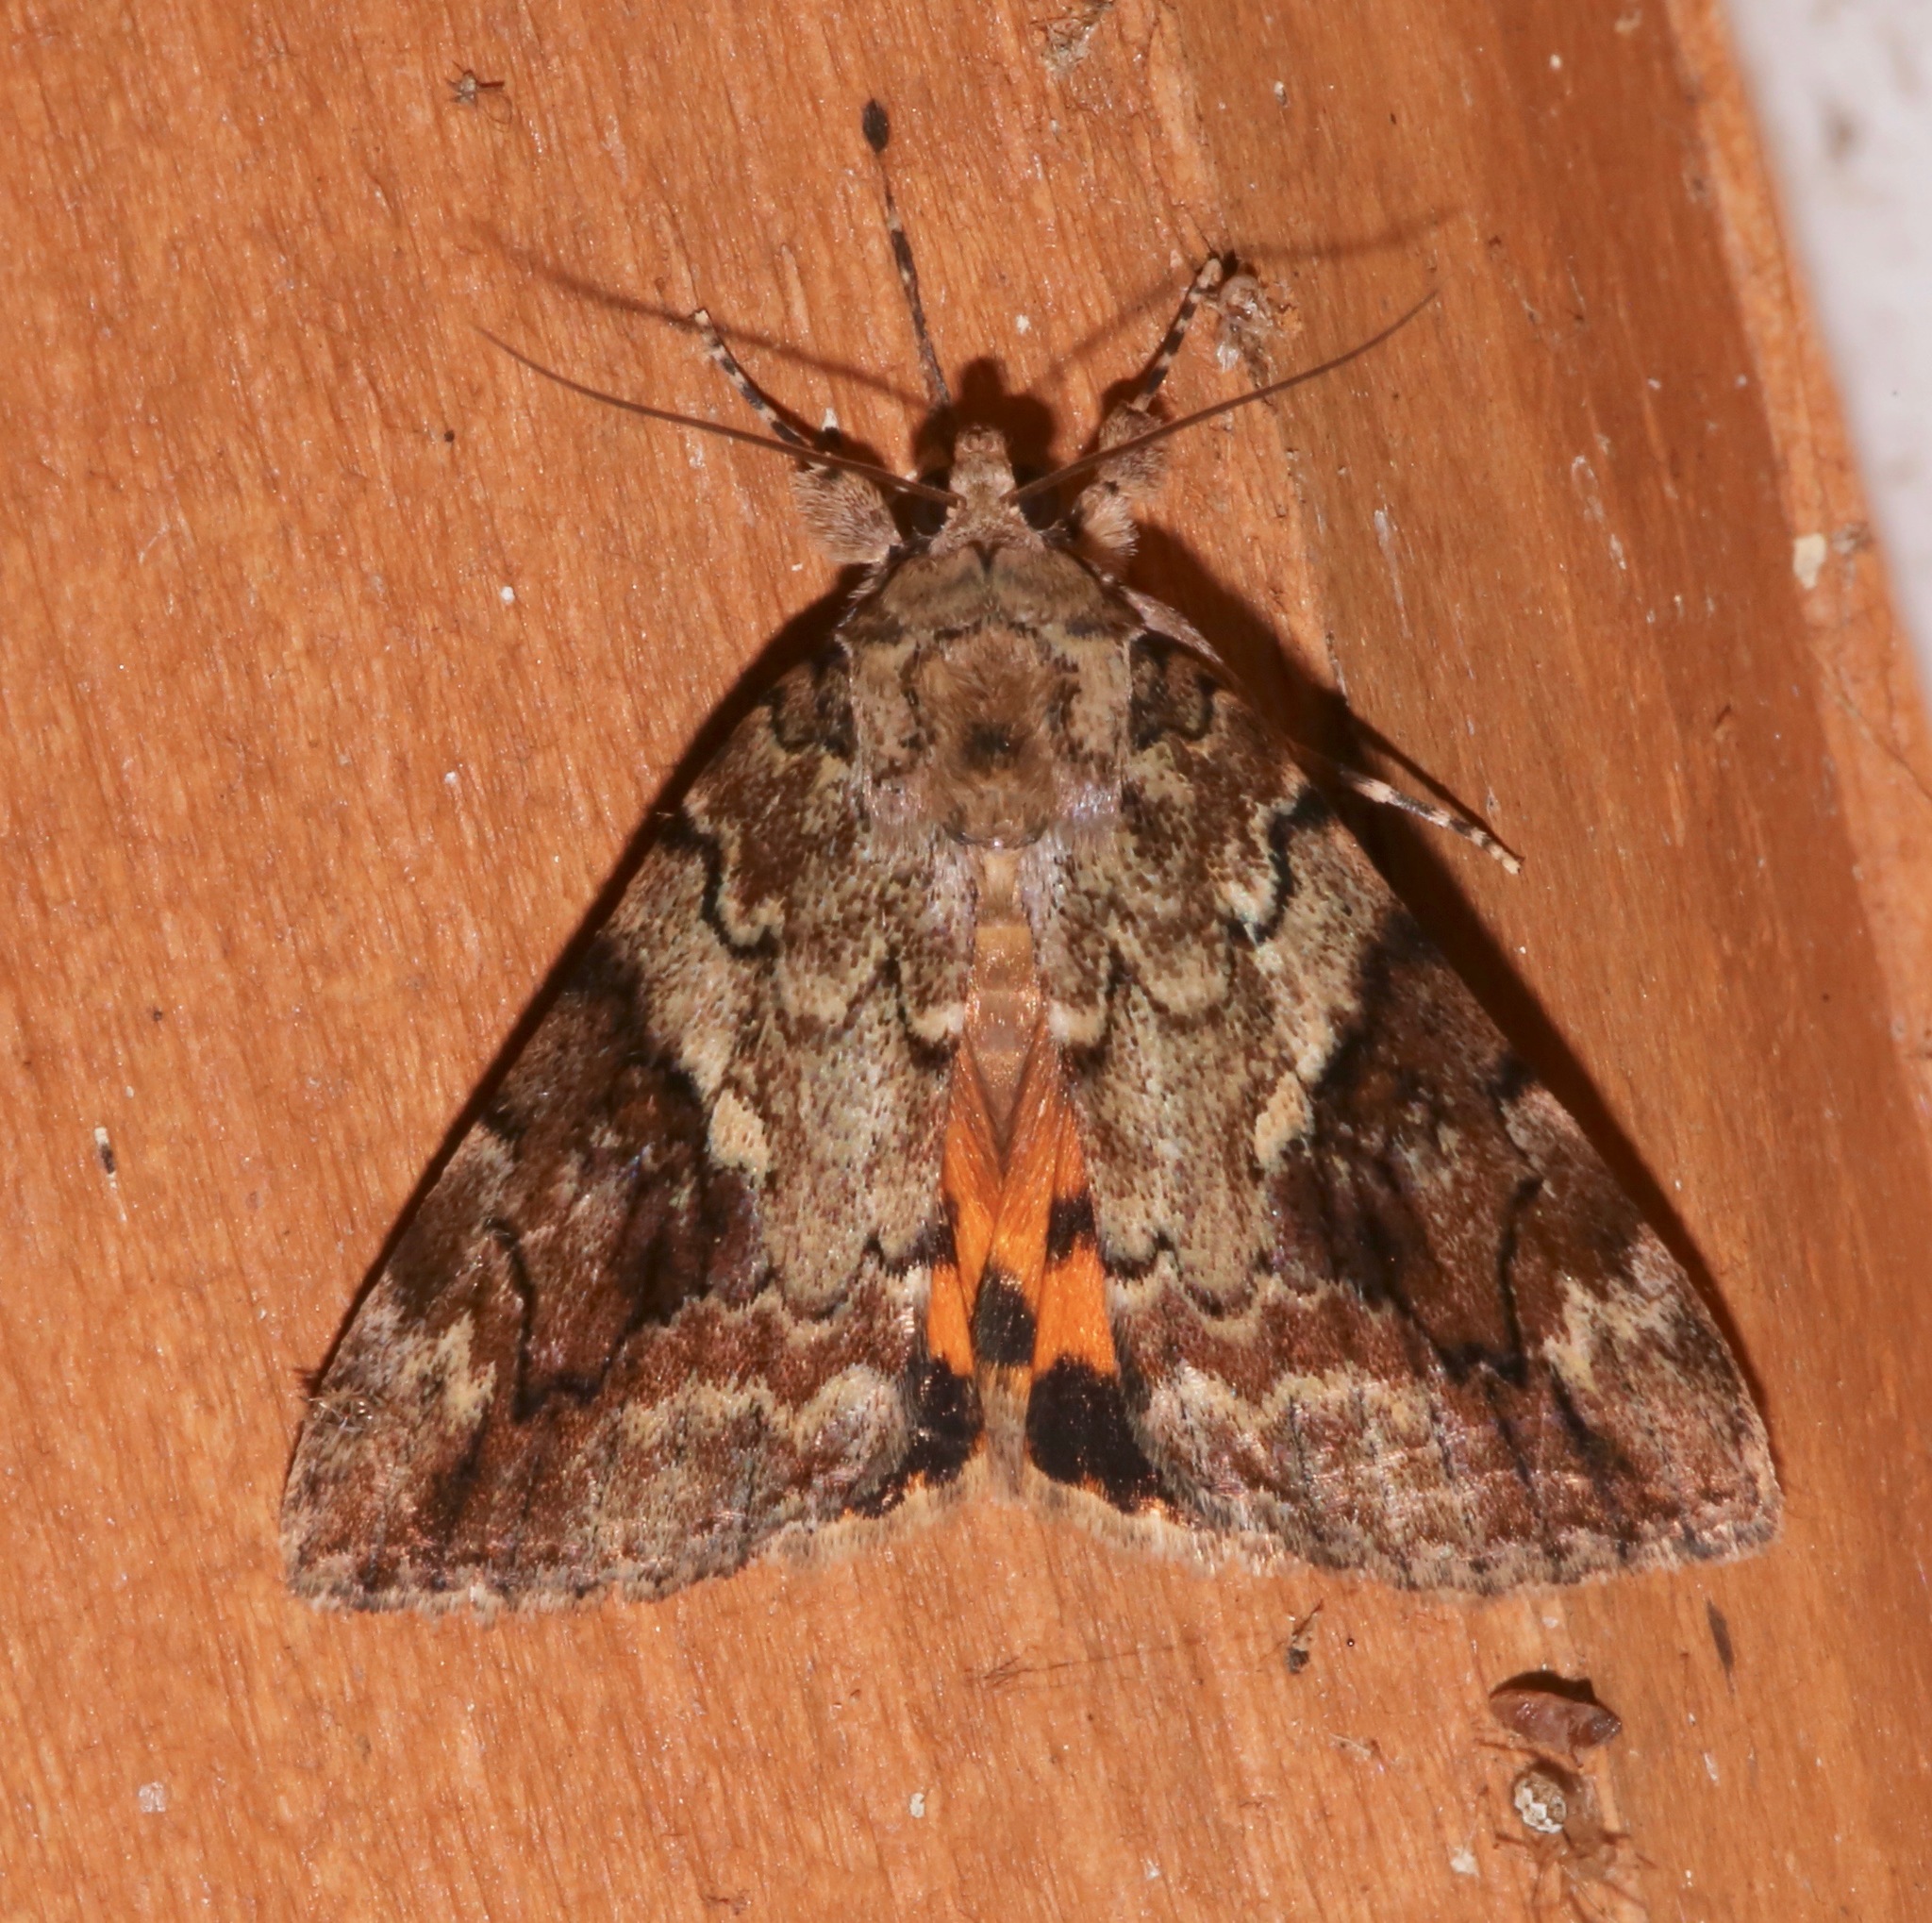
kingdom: Animalia
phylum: Arthropoda
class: Insecta
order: Lepidoptera
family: Erebidae
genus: Catocala
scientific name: Catocala micronympha
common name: Little nymph underwing
